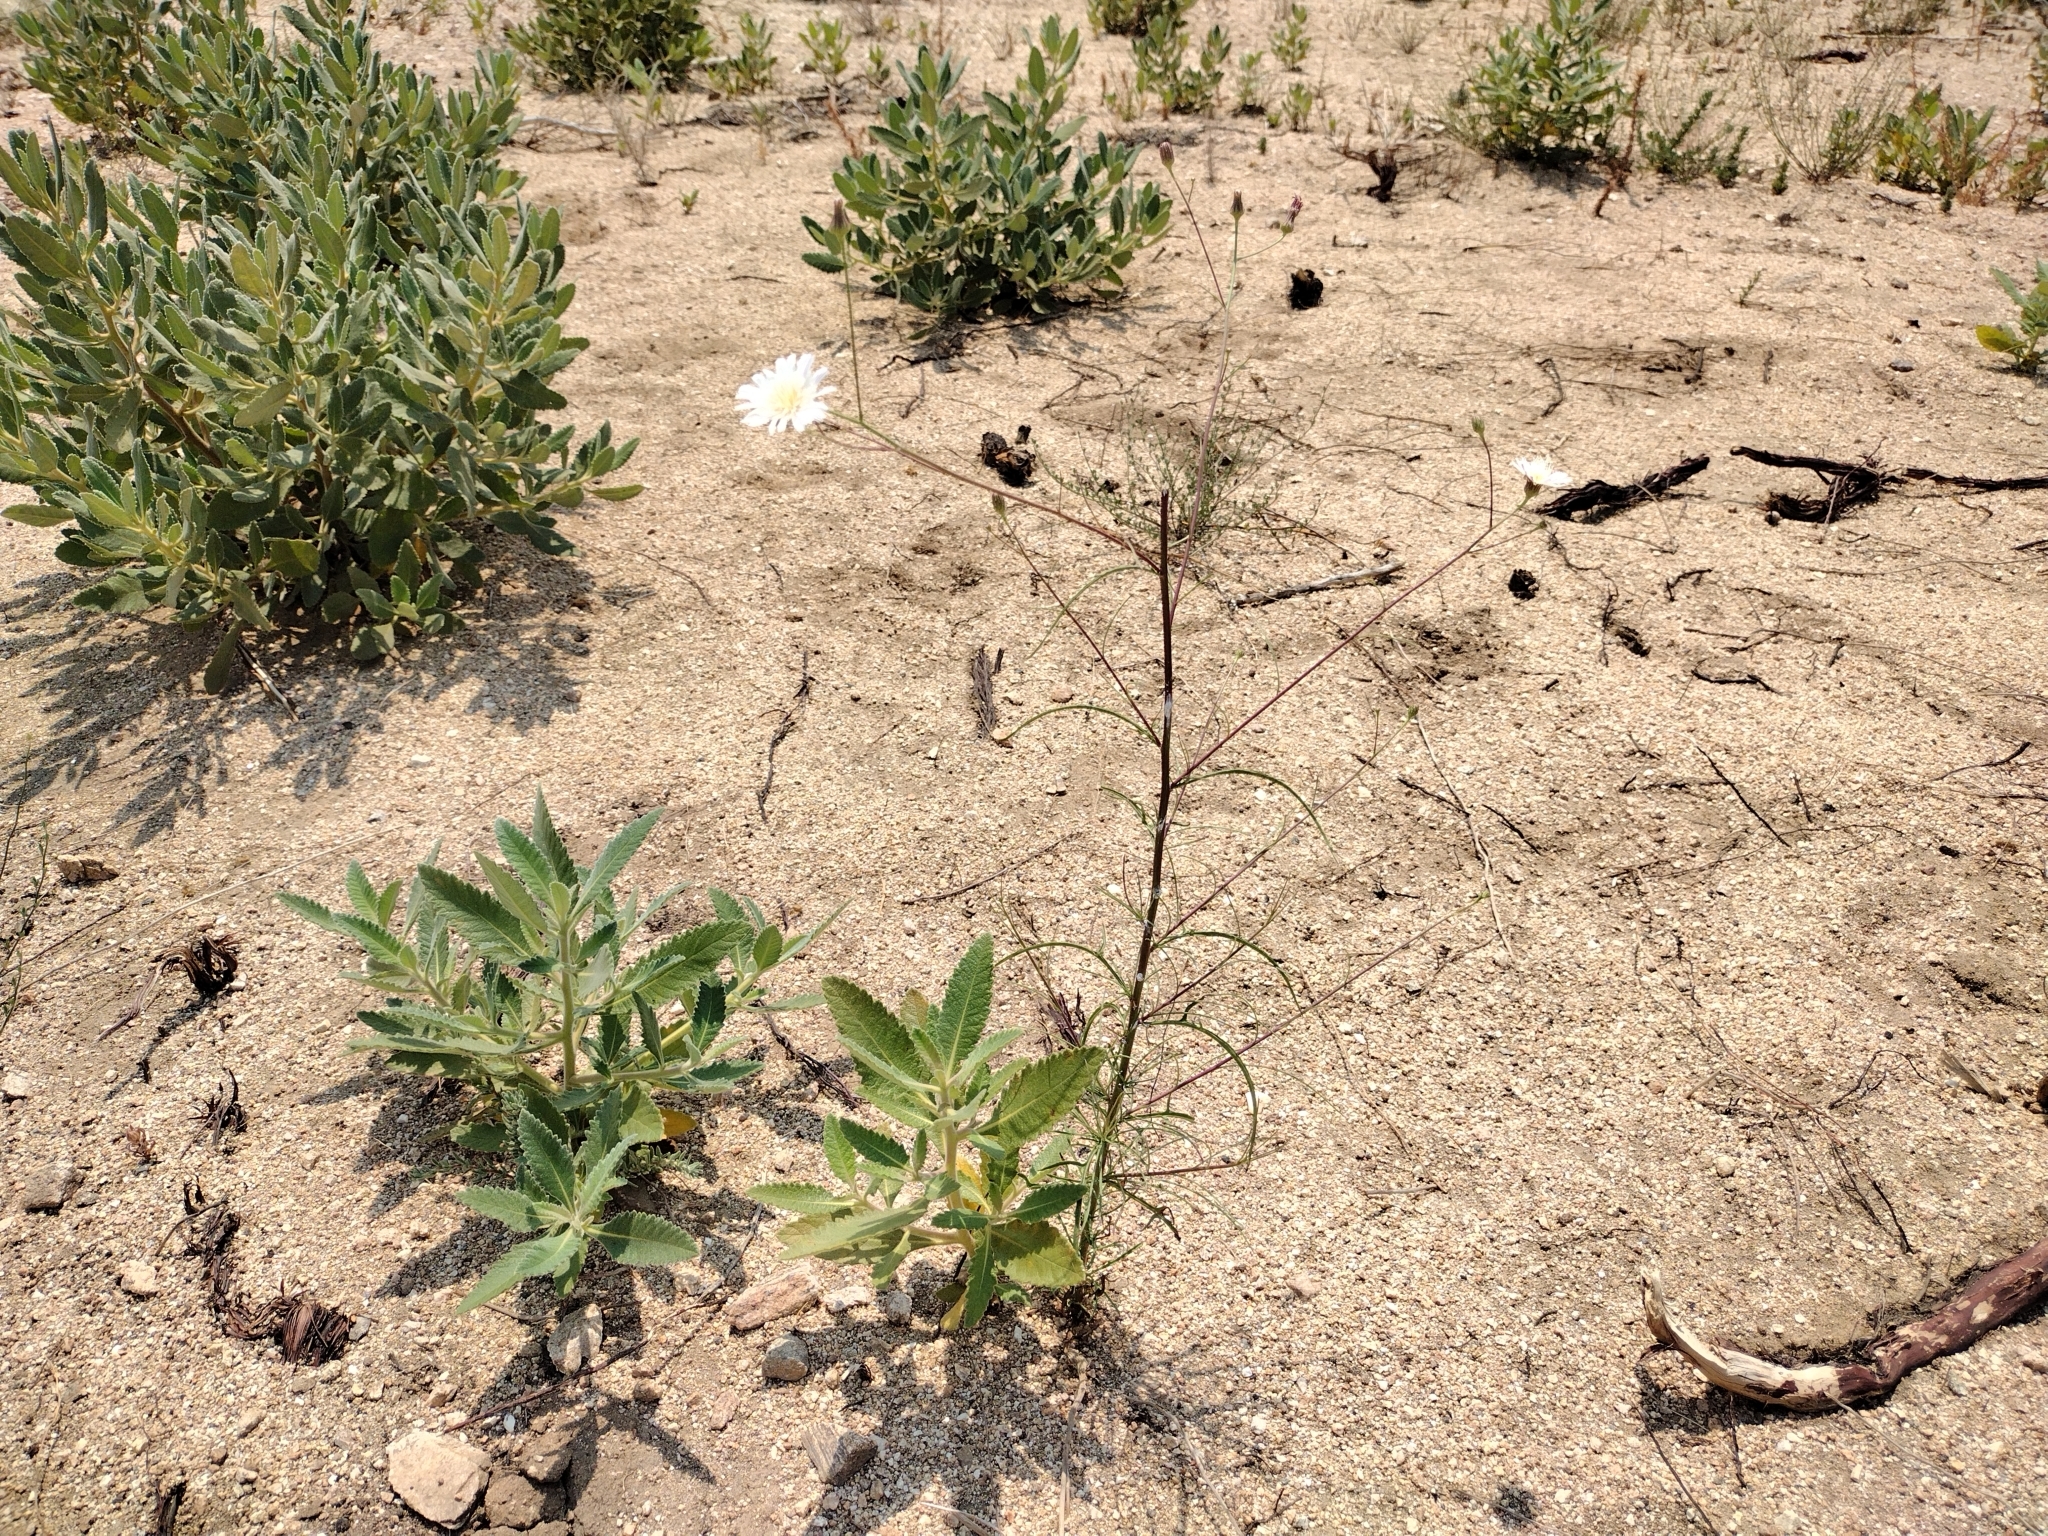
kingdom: Plantae
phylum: Tracheophyta
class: Magnoliopsida
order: Asterales
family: Asteraceae
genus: Malacothrix
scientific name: Malacothrix saxatilis
